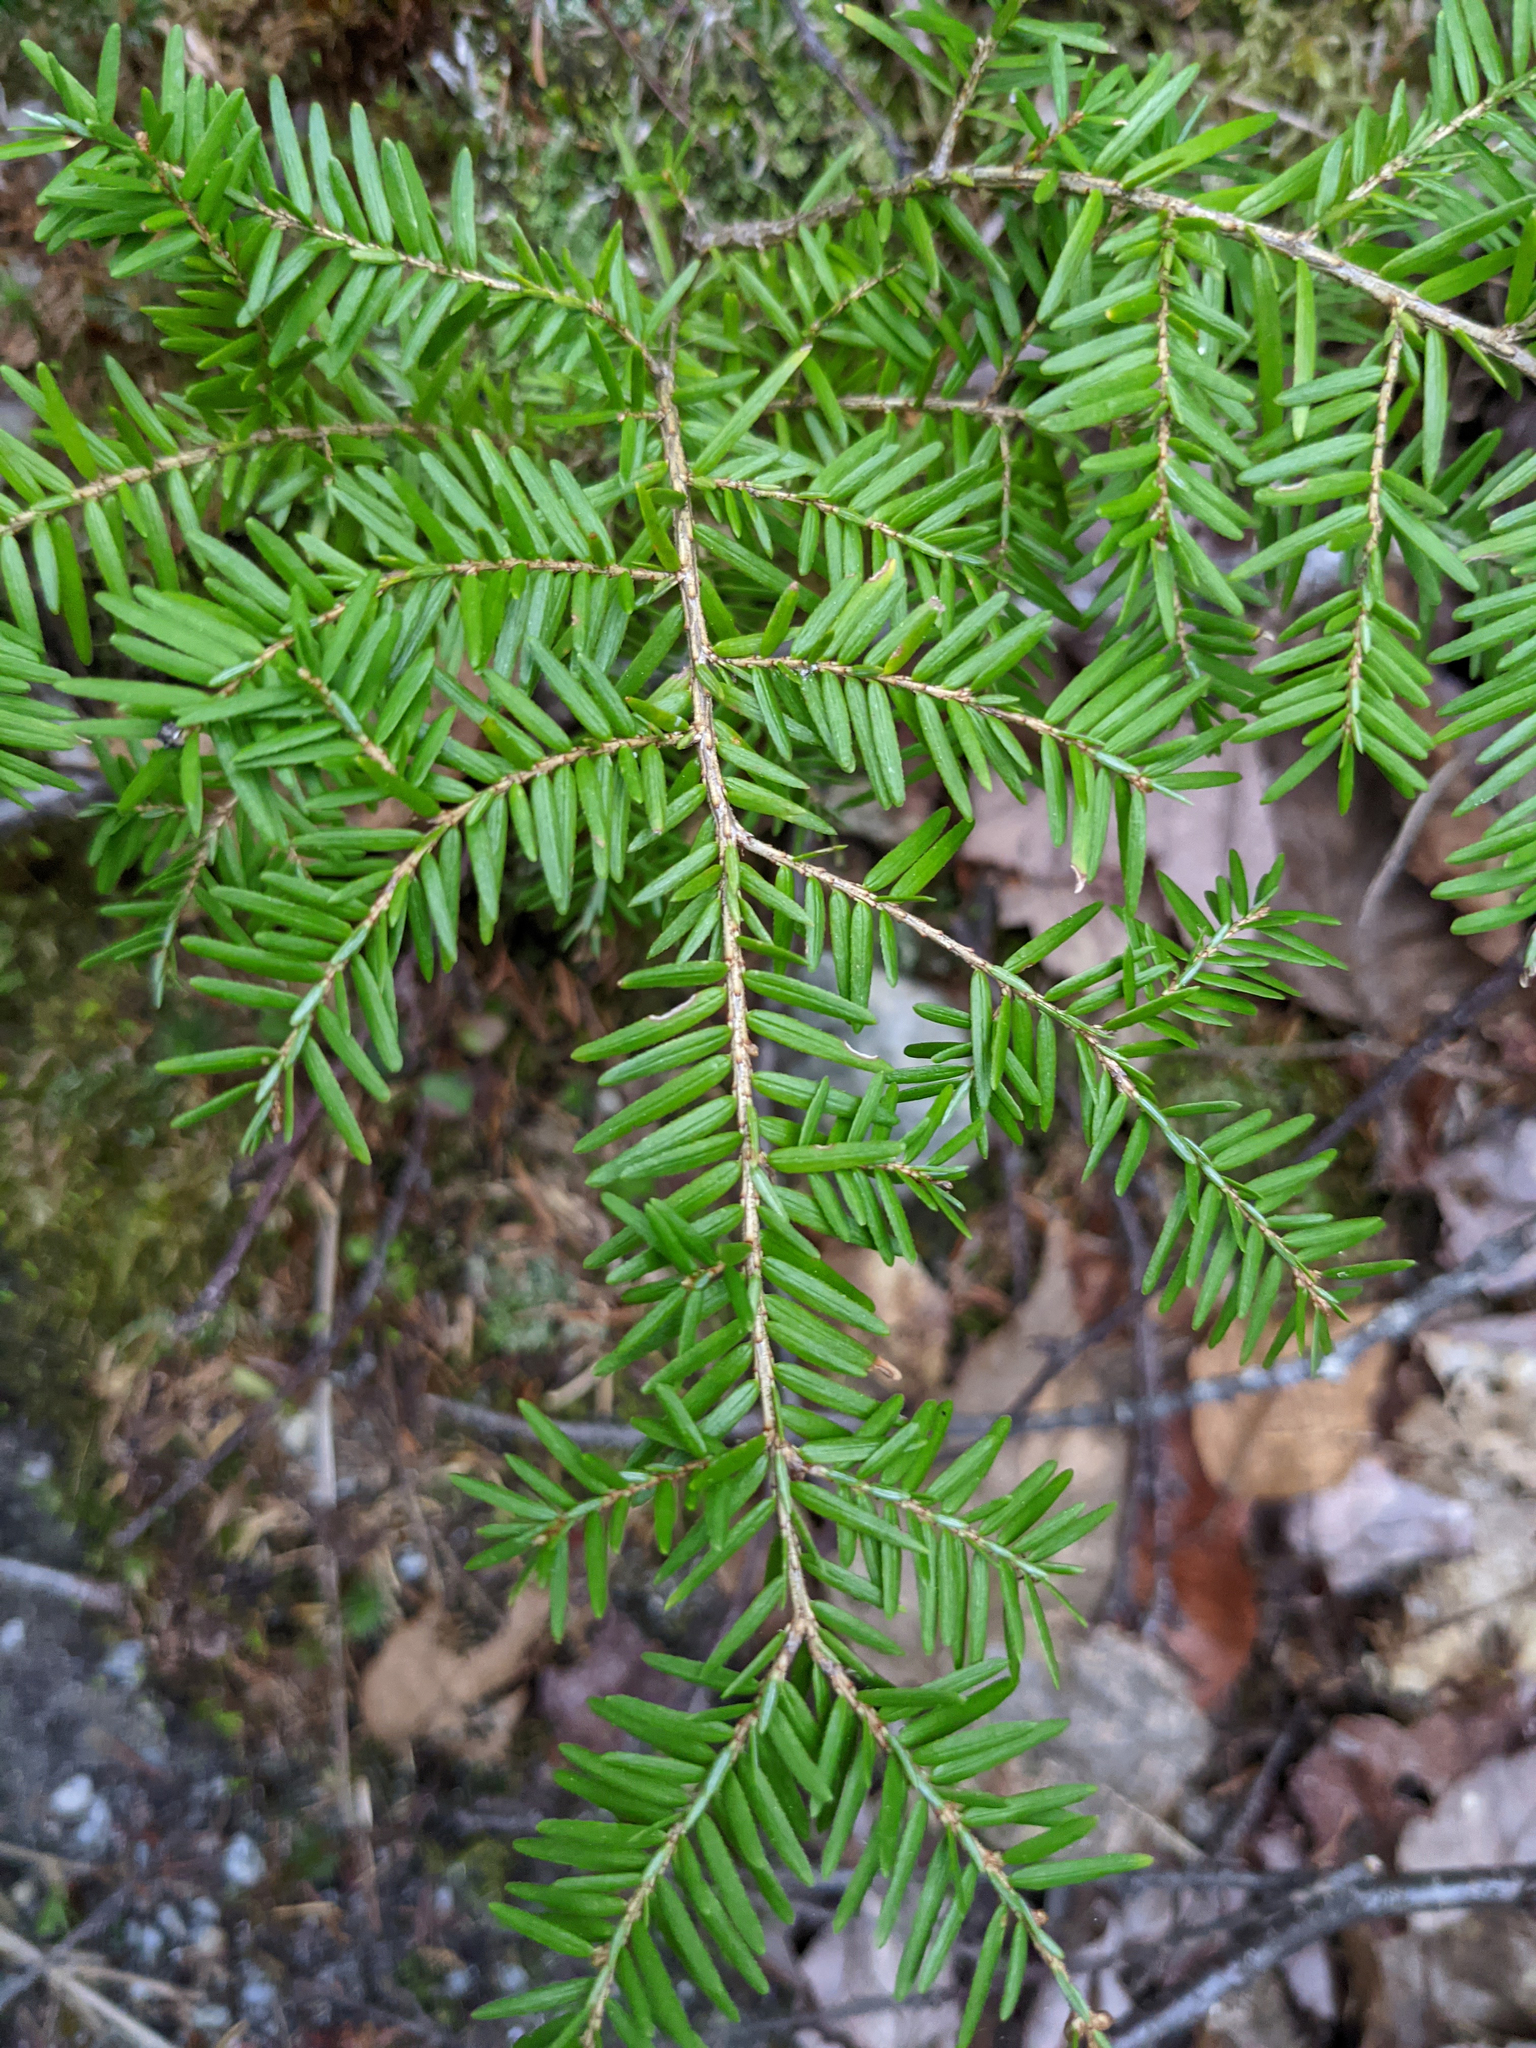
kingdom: Plantae
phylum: Tracheophyta
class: Pinopsida
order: Pinales
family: Pinaceae
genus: Tsuga
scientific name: Tsuga canadensis
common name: Eastern hemlock
